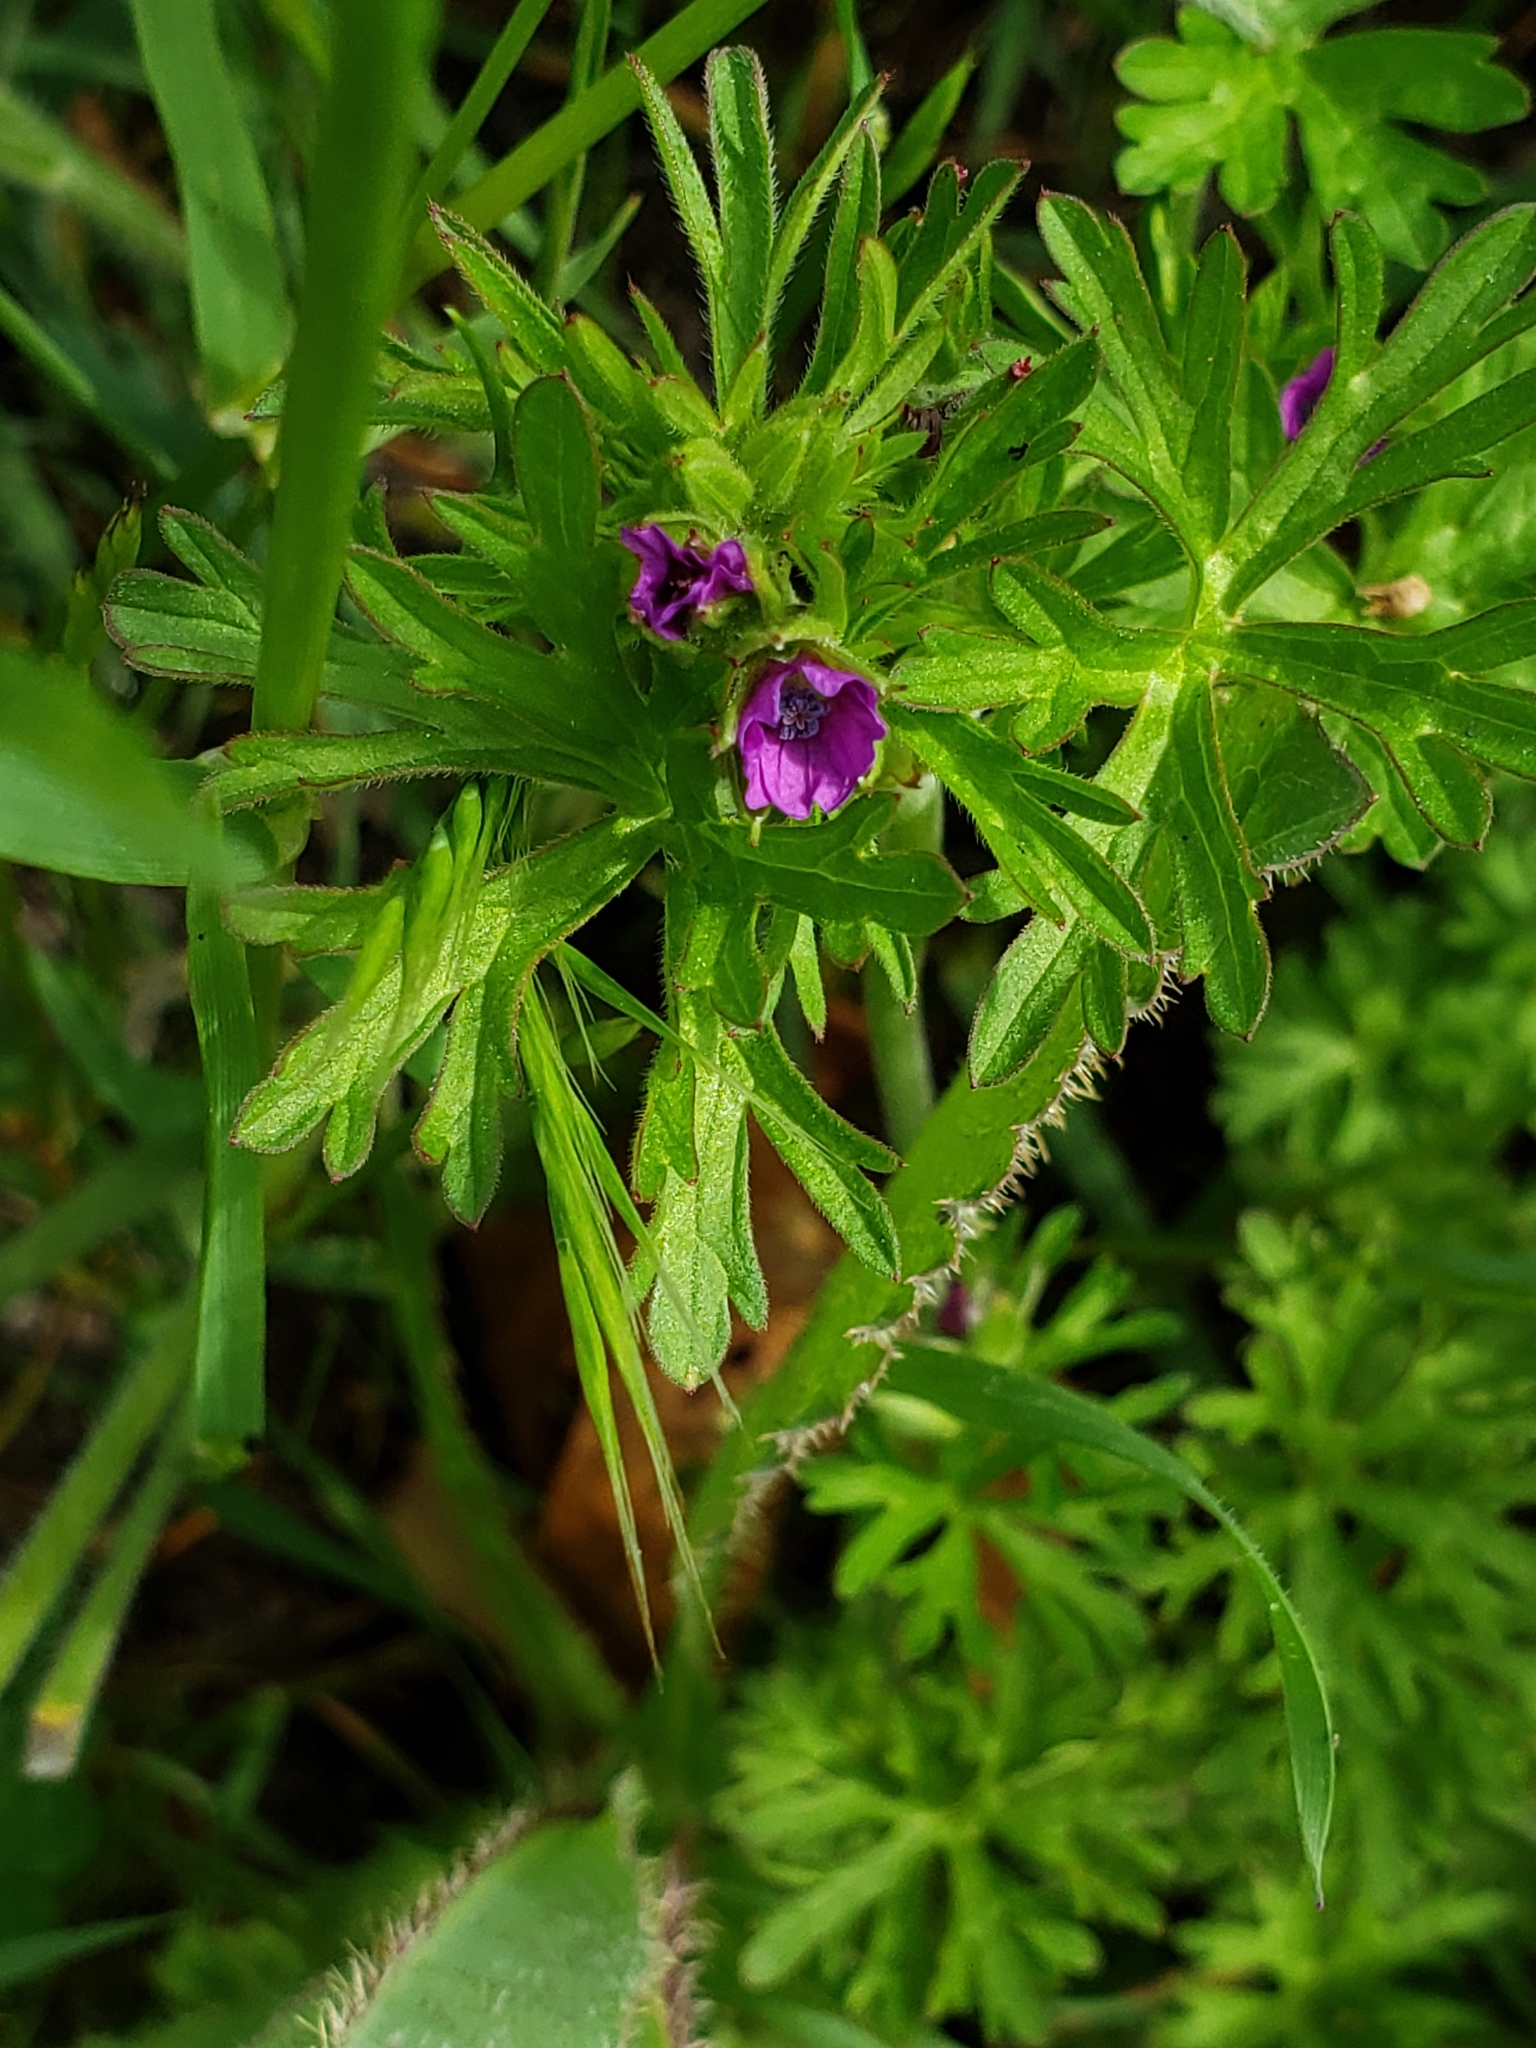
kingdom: Plantae
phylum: Tracheophyta
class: Magnoliopsida
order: Geraniales
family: Geraniaceae
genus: Geranium
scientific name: Geranium dissectum
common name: Cut-leaved crane's-bill
